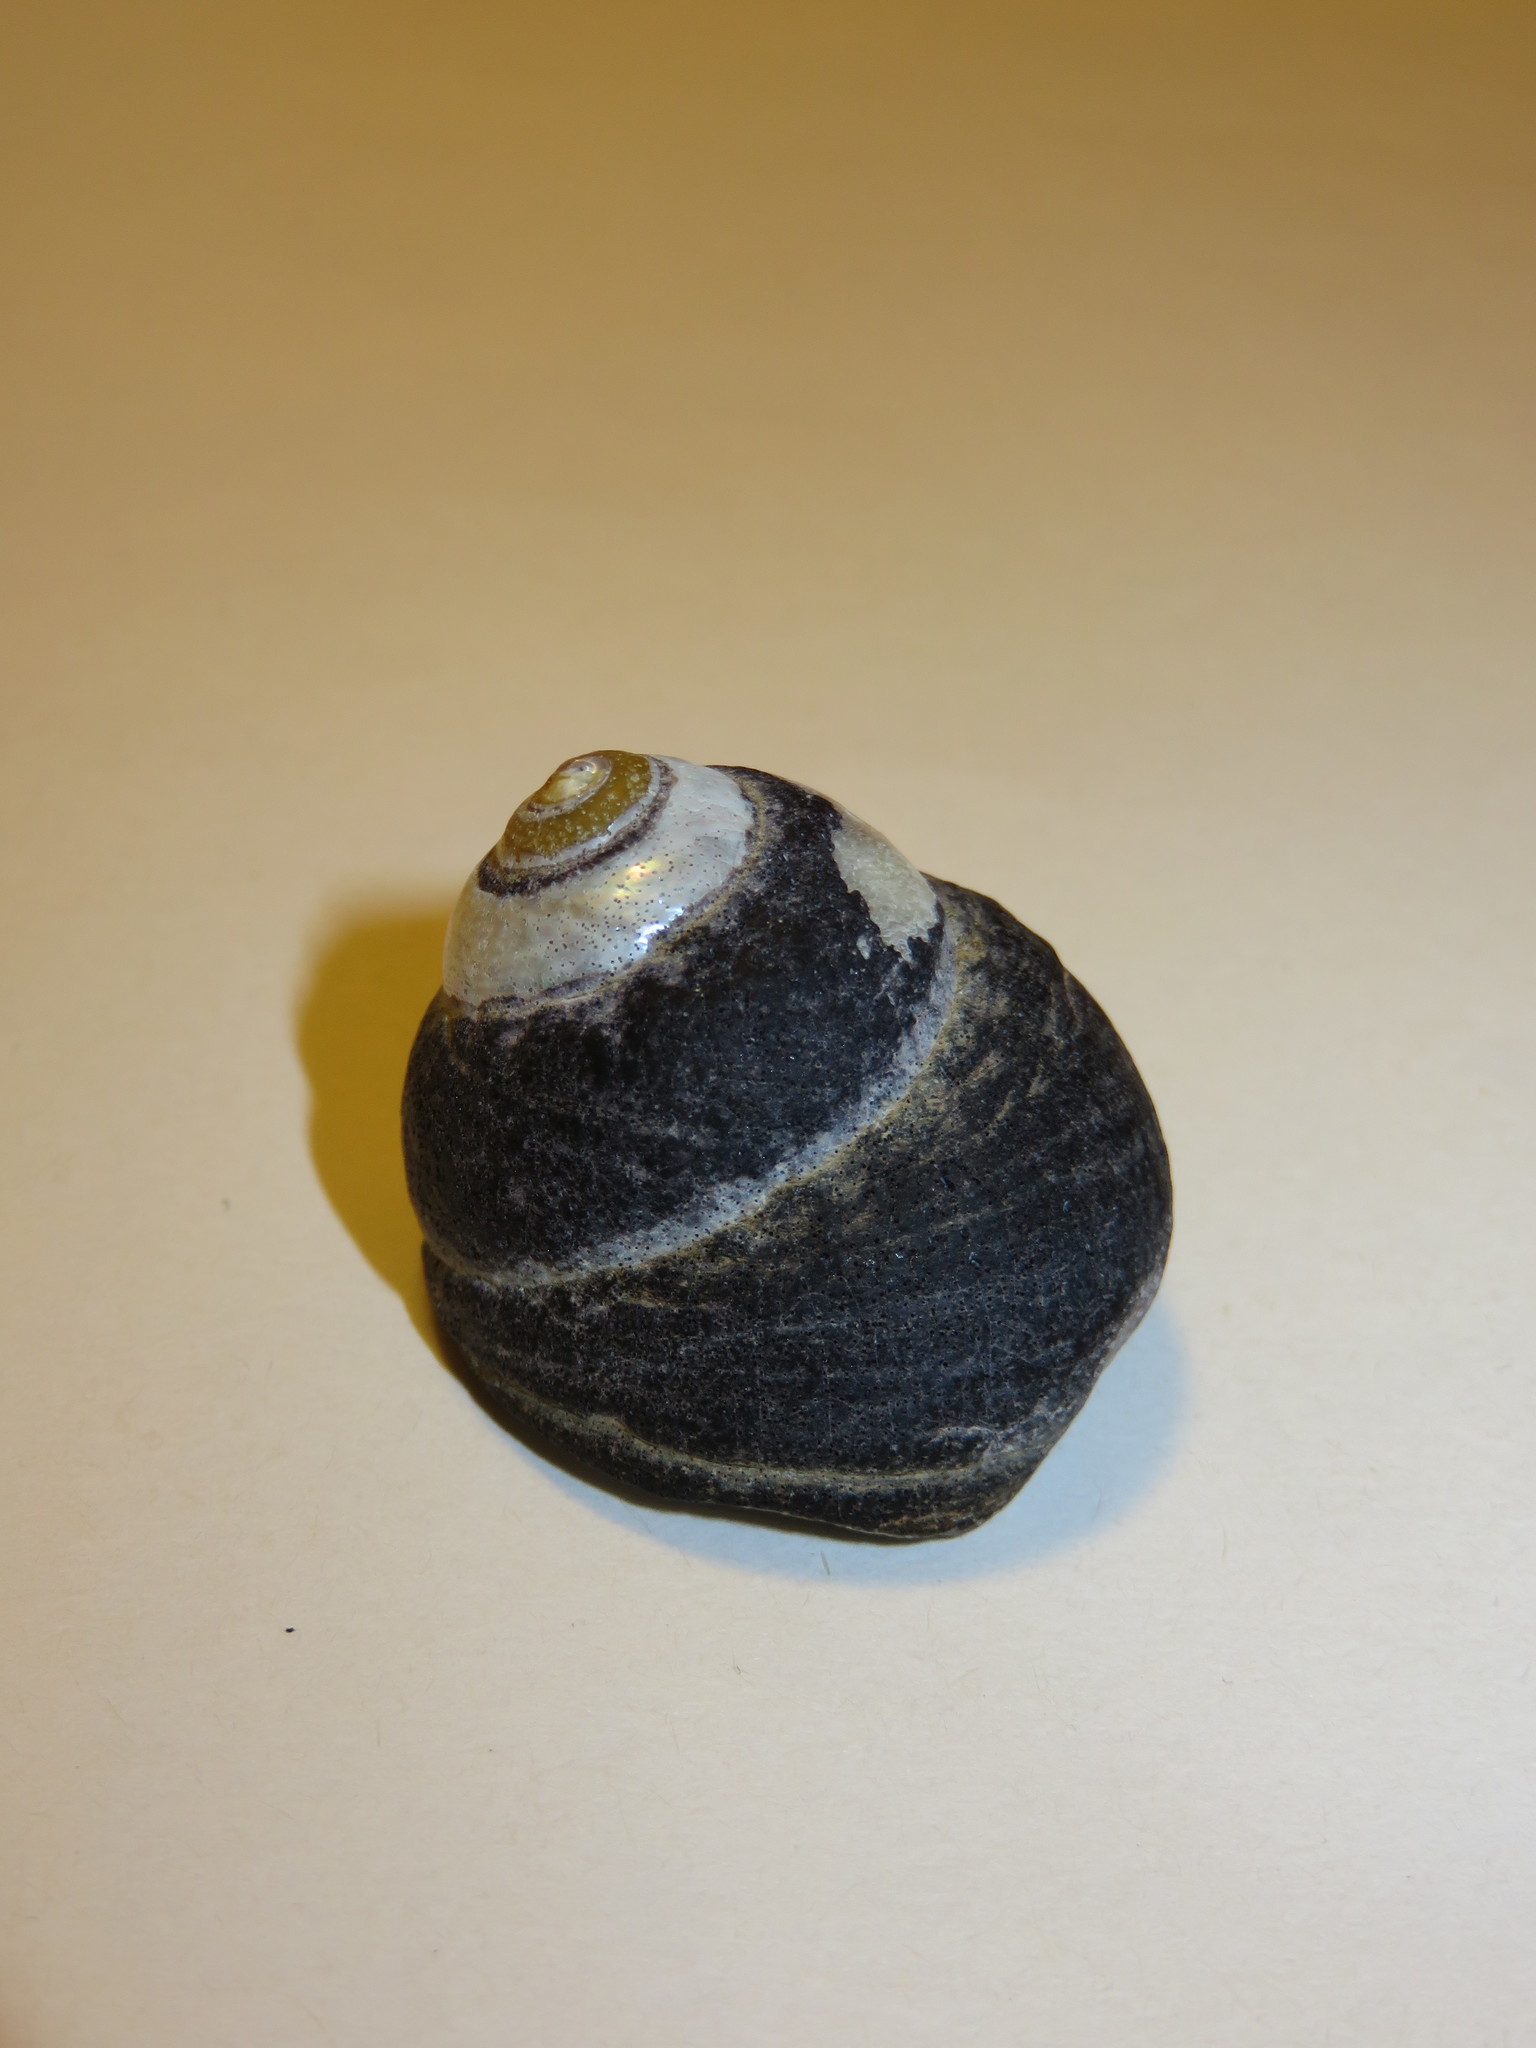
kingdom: Animalia
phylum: Mollusca
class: Gastropoda
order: Trochida
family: Tegulidae
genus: Tegula
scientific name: Tegula rugata
